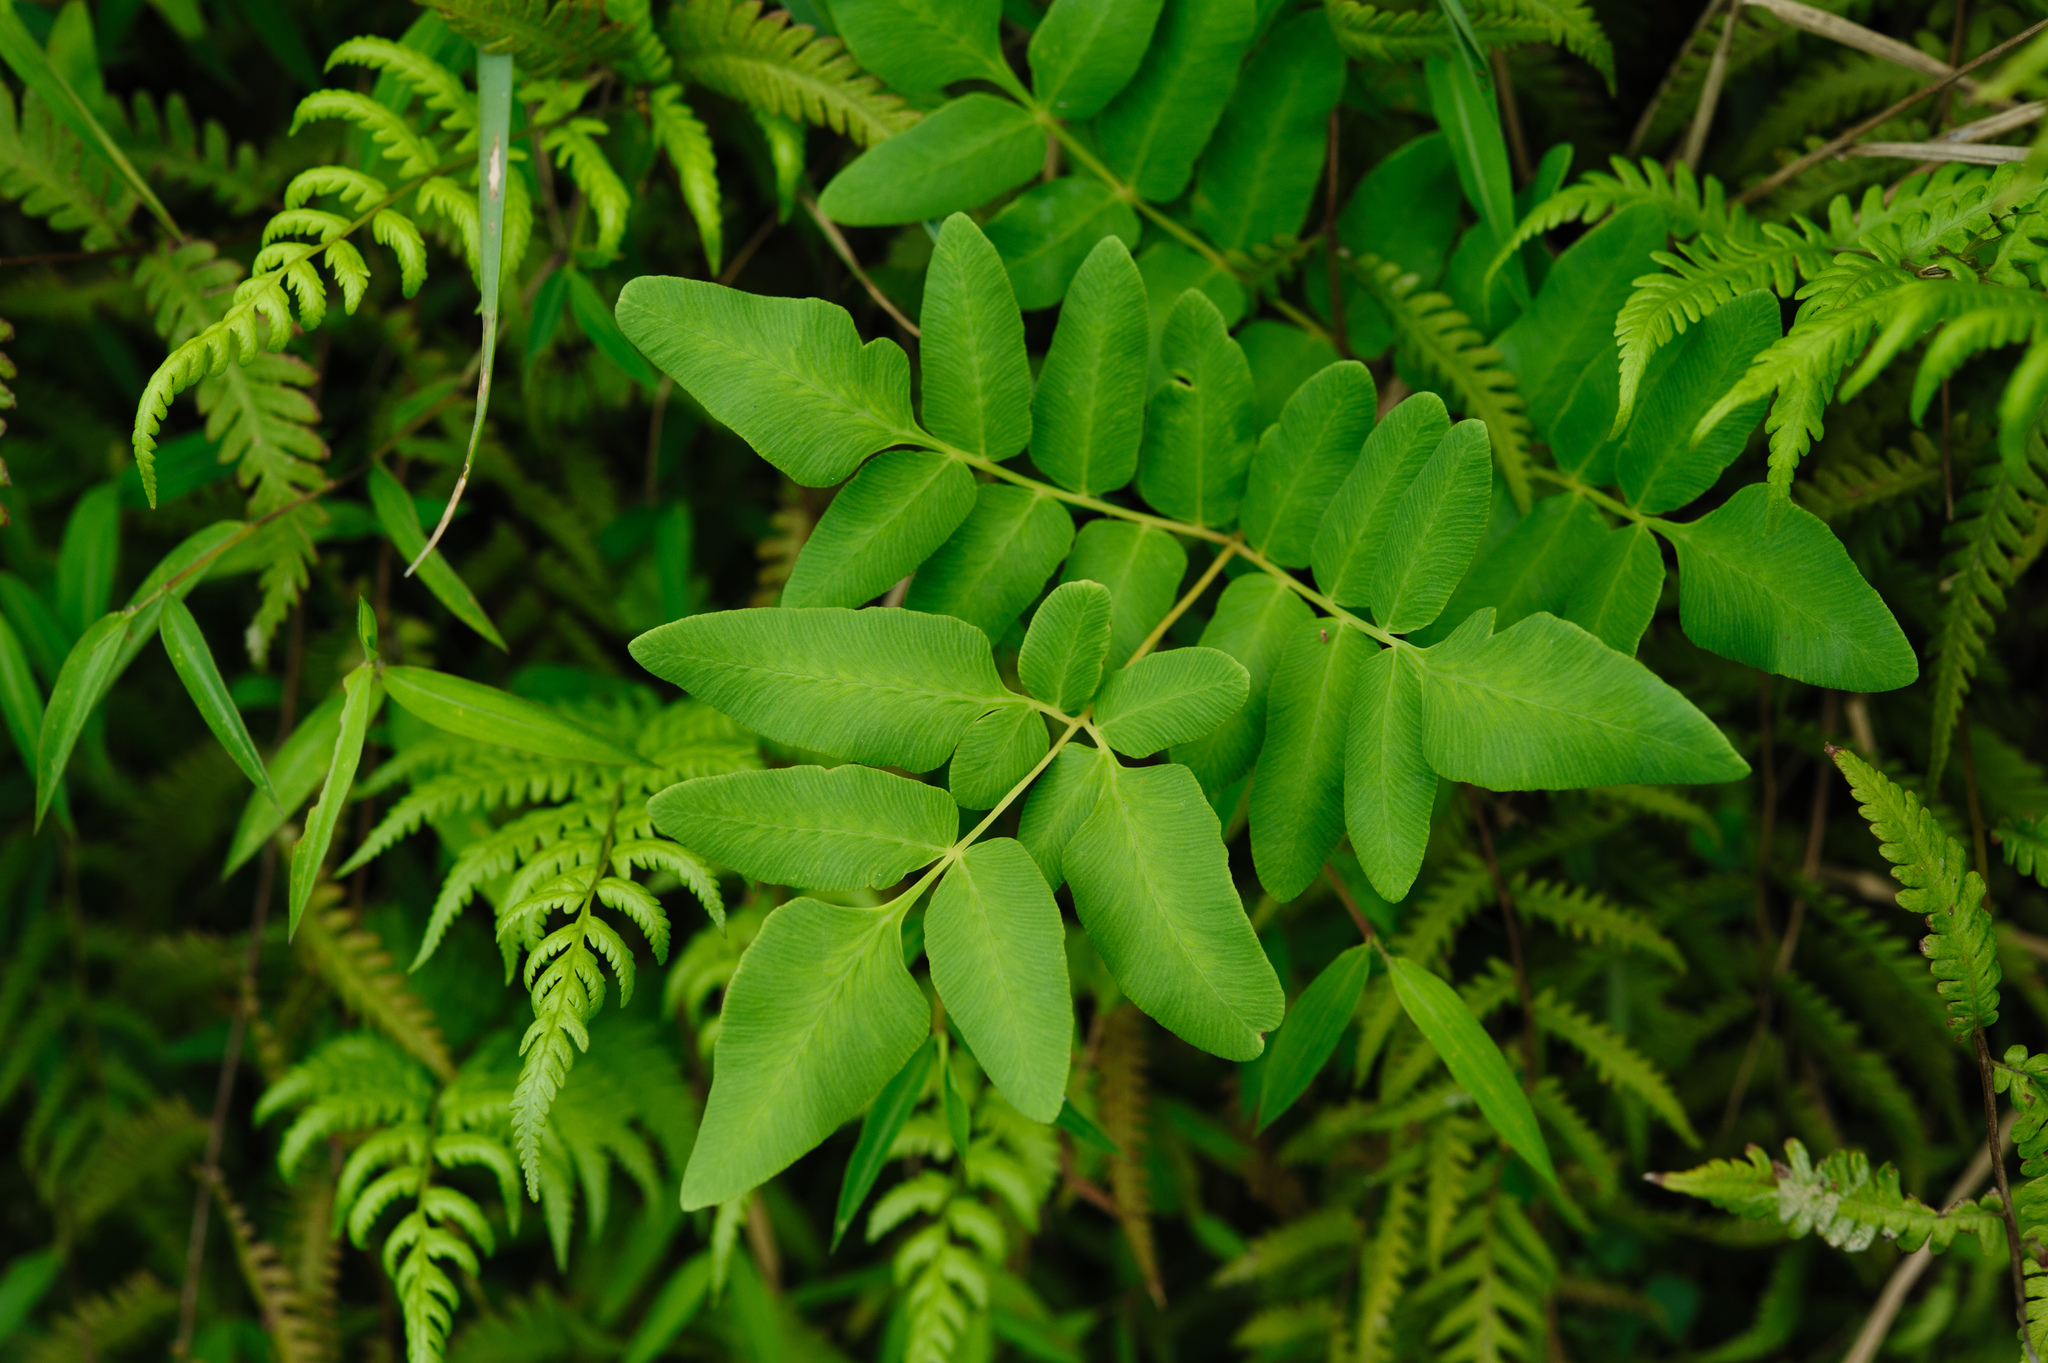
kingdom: Plantae
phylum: Tracheophyta
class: Polypodiopsida
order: Osmundales
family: Osmundaceae
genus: Osmunda
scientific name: Osmunda japonica
